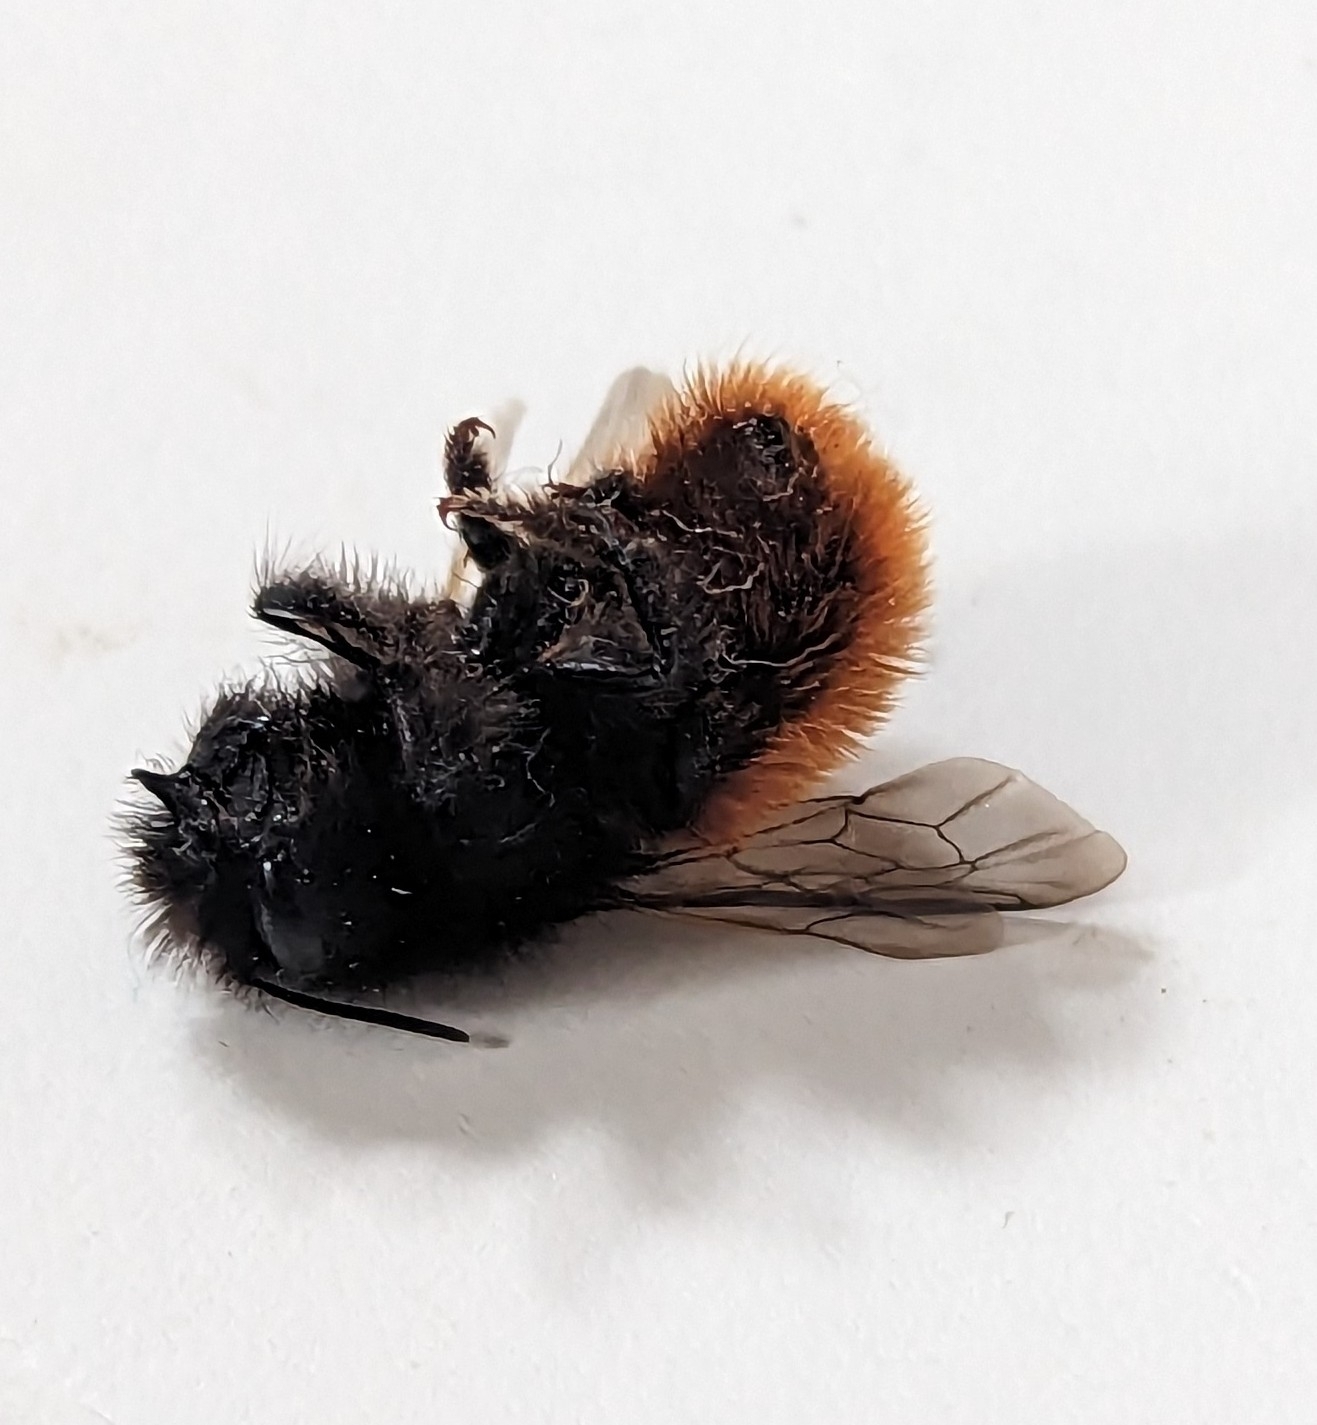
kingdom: Animalia
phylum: Arthropoda
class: Insecta
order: Hymenoptera
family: Megachilidae
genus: Osmia
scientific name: Osmia cornuta
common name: Mason bee
